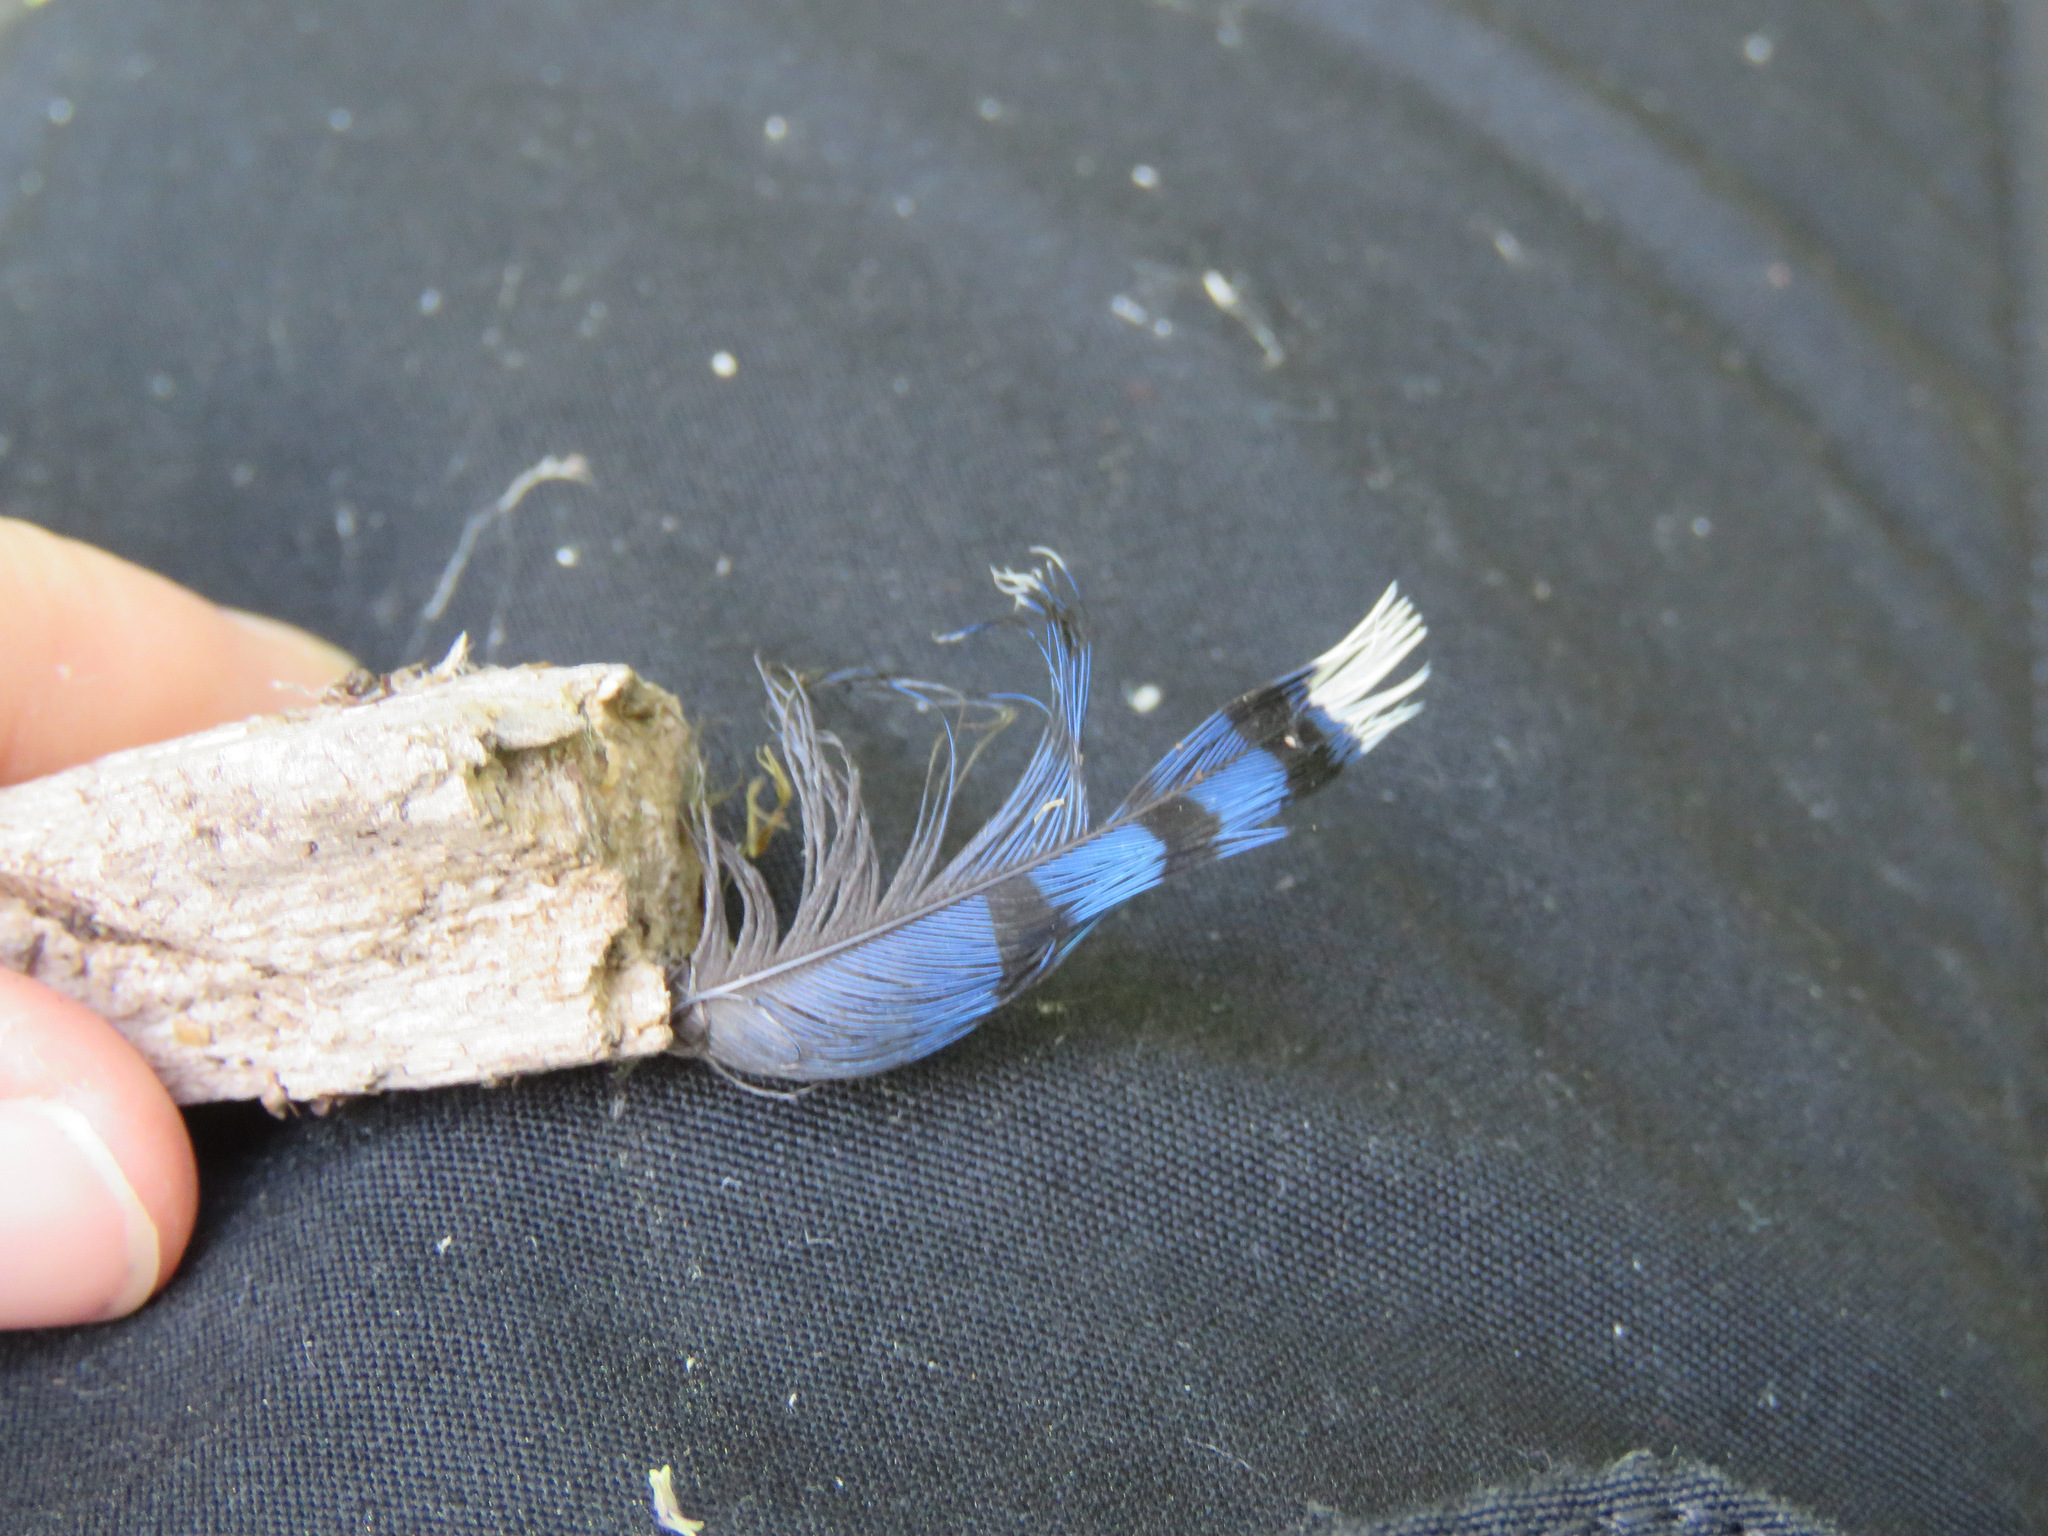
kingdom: Animalia
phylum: Chordata
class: Aves
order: Passeriformes
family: Corvidae
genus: Cyanocitta
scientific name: Cyanocitta cristata
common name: Blue jay
